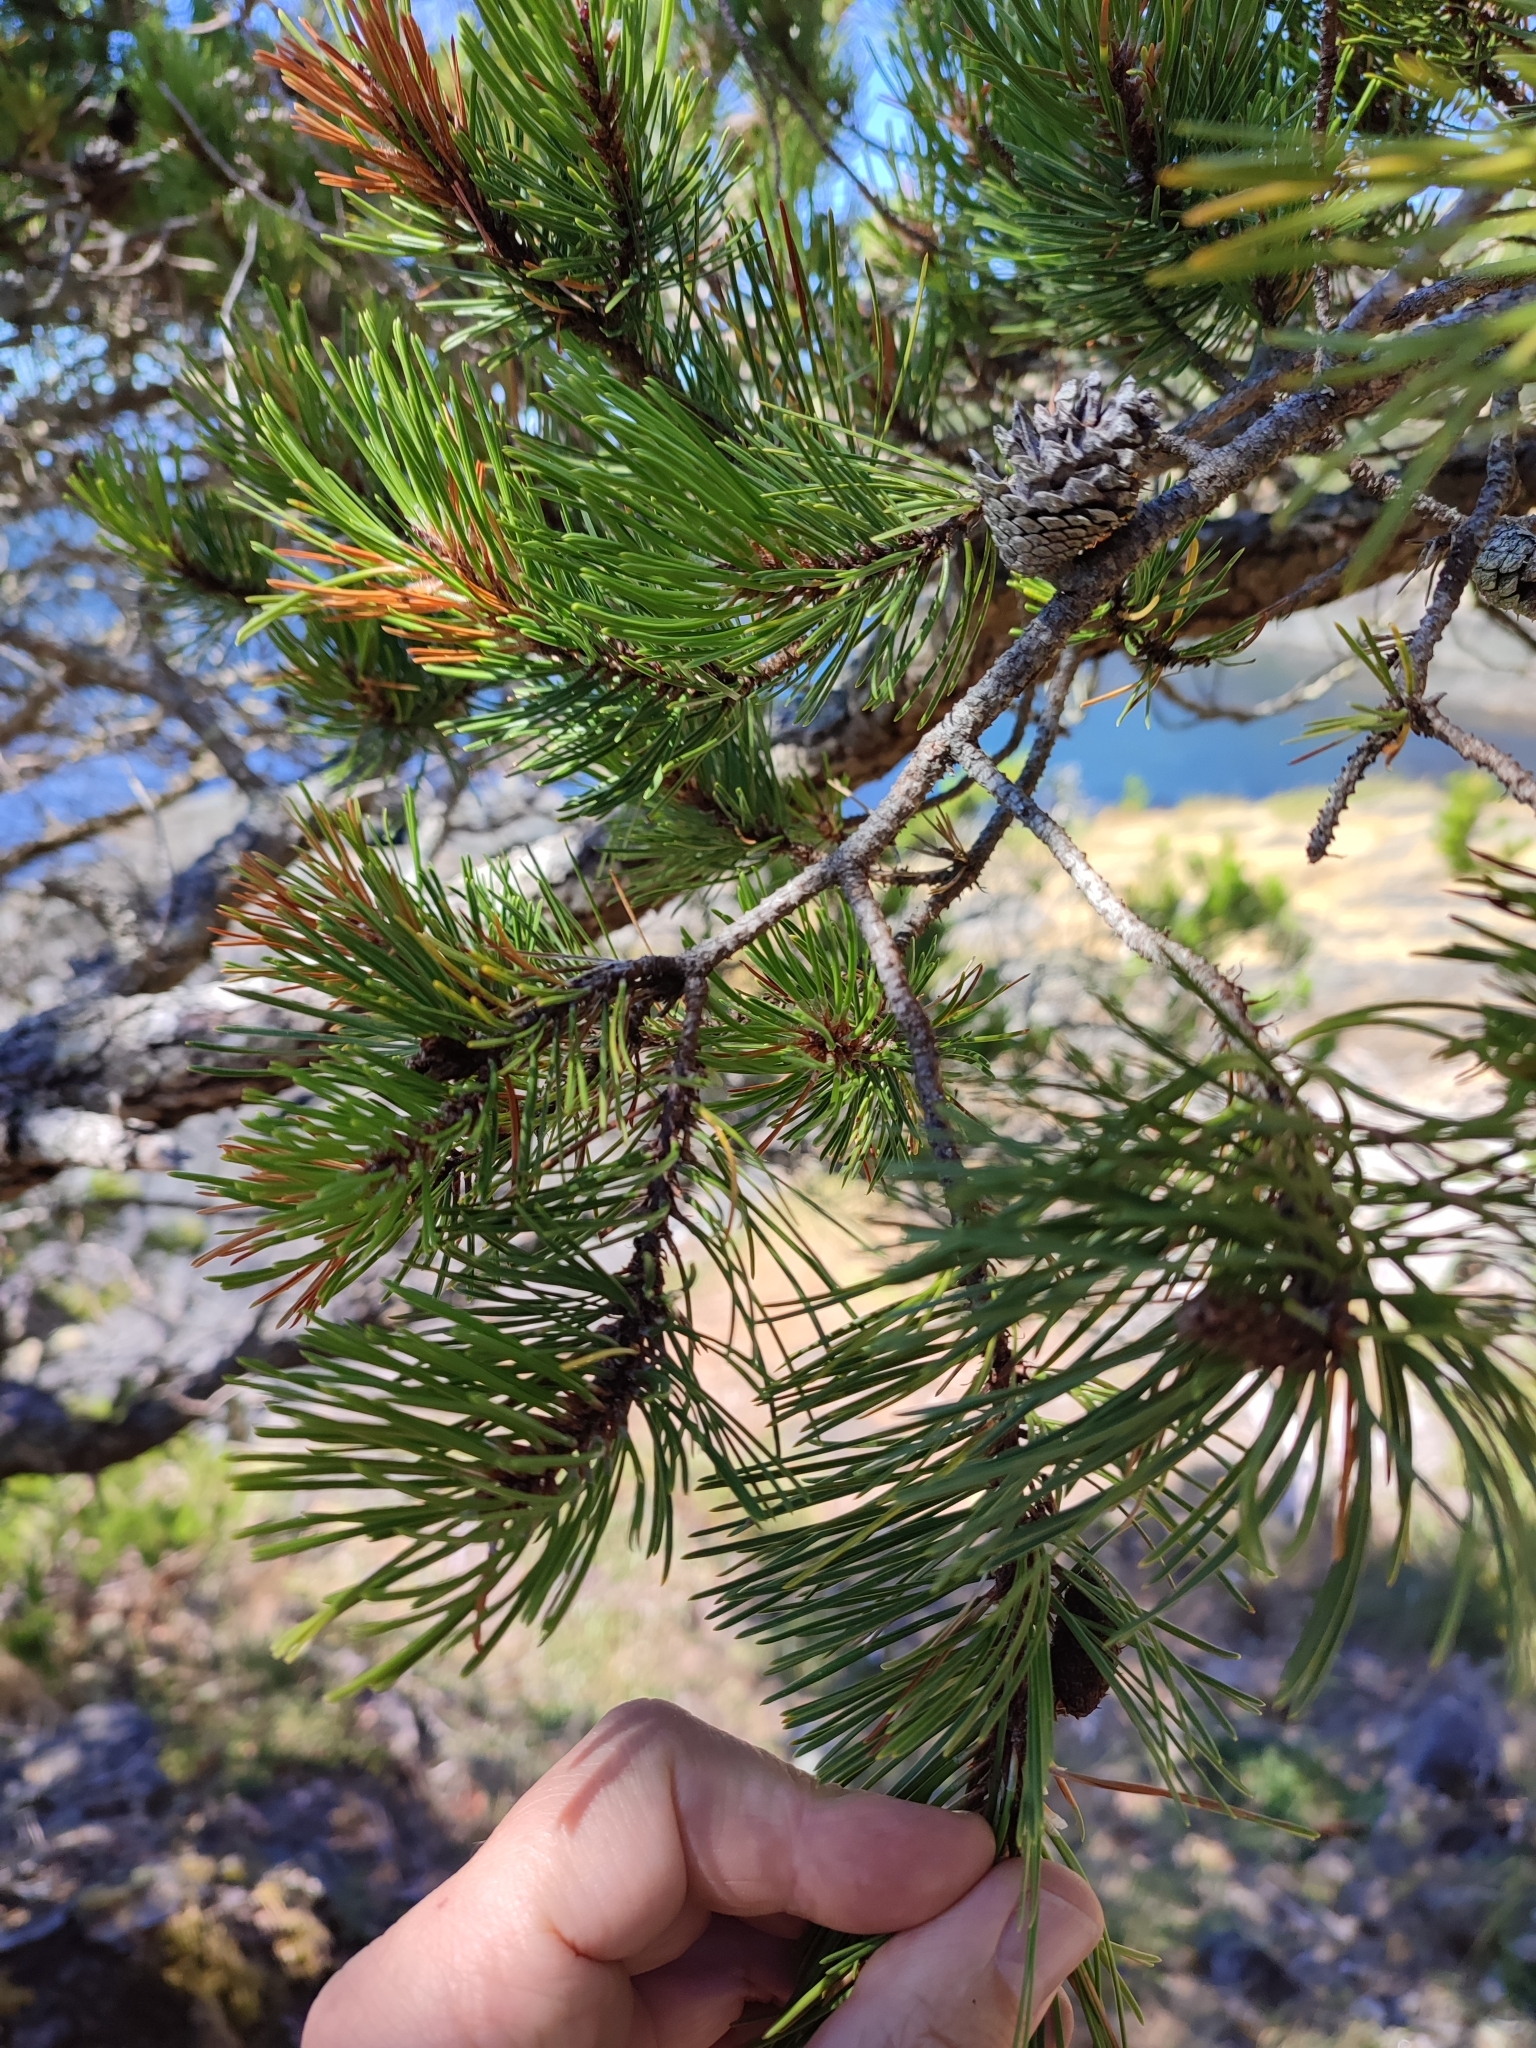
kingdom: Plantae
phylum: Tracheophyta
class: Pinopsida
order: Pinales
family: Pinaceae
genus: Pinus
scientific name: Pinus contorta
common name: Lodgepole pine
